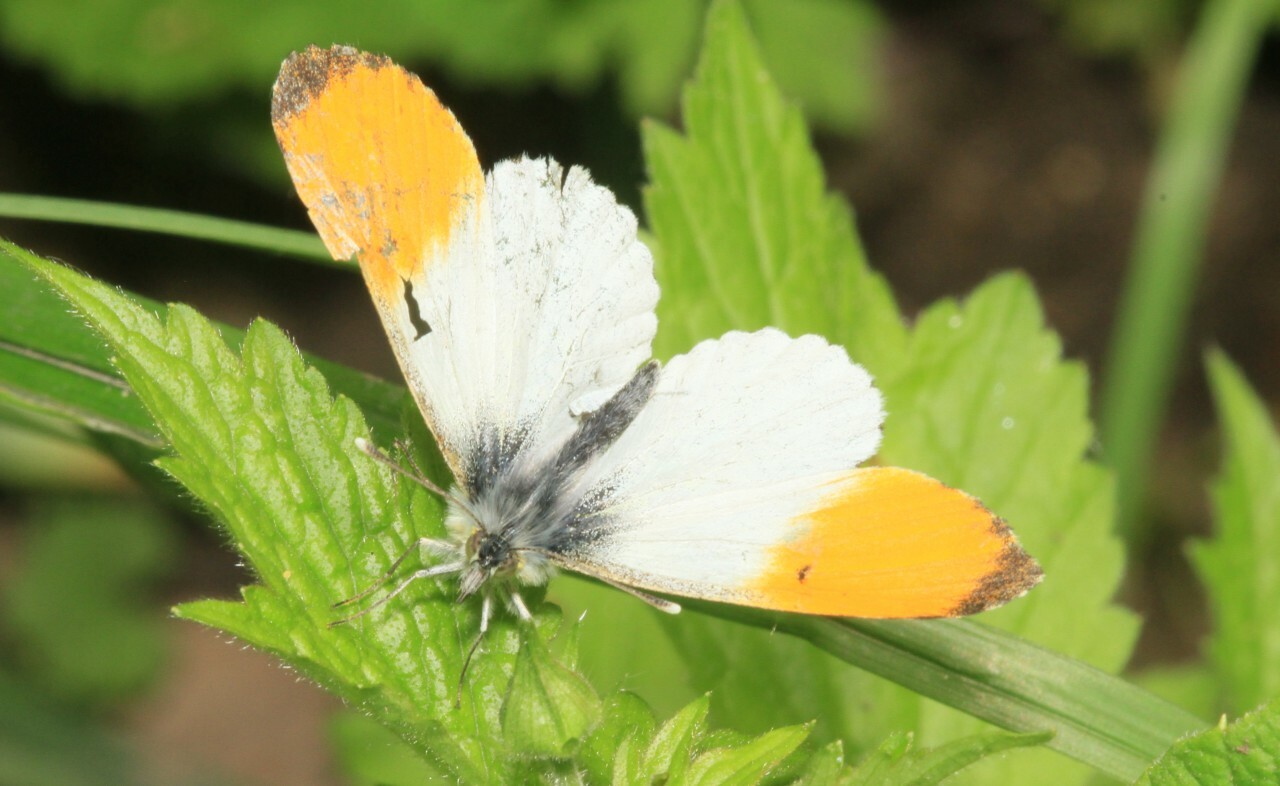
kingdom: Animalia
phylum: Arthropoda
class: Insecta
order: Lepidoptera
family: Pieridae
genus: Anthocharis
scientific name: Anthocharis cardamines
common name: Orange-tip
